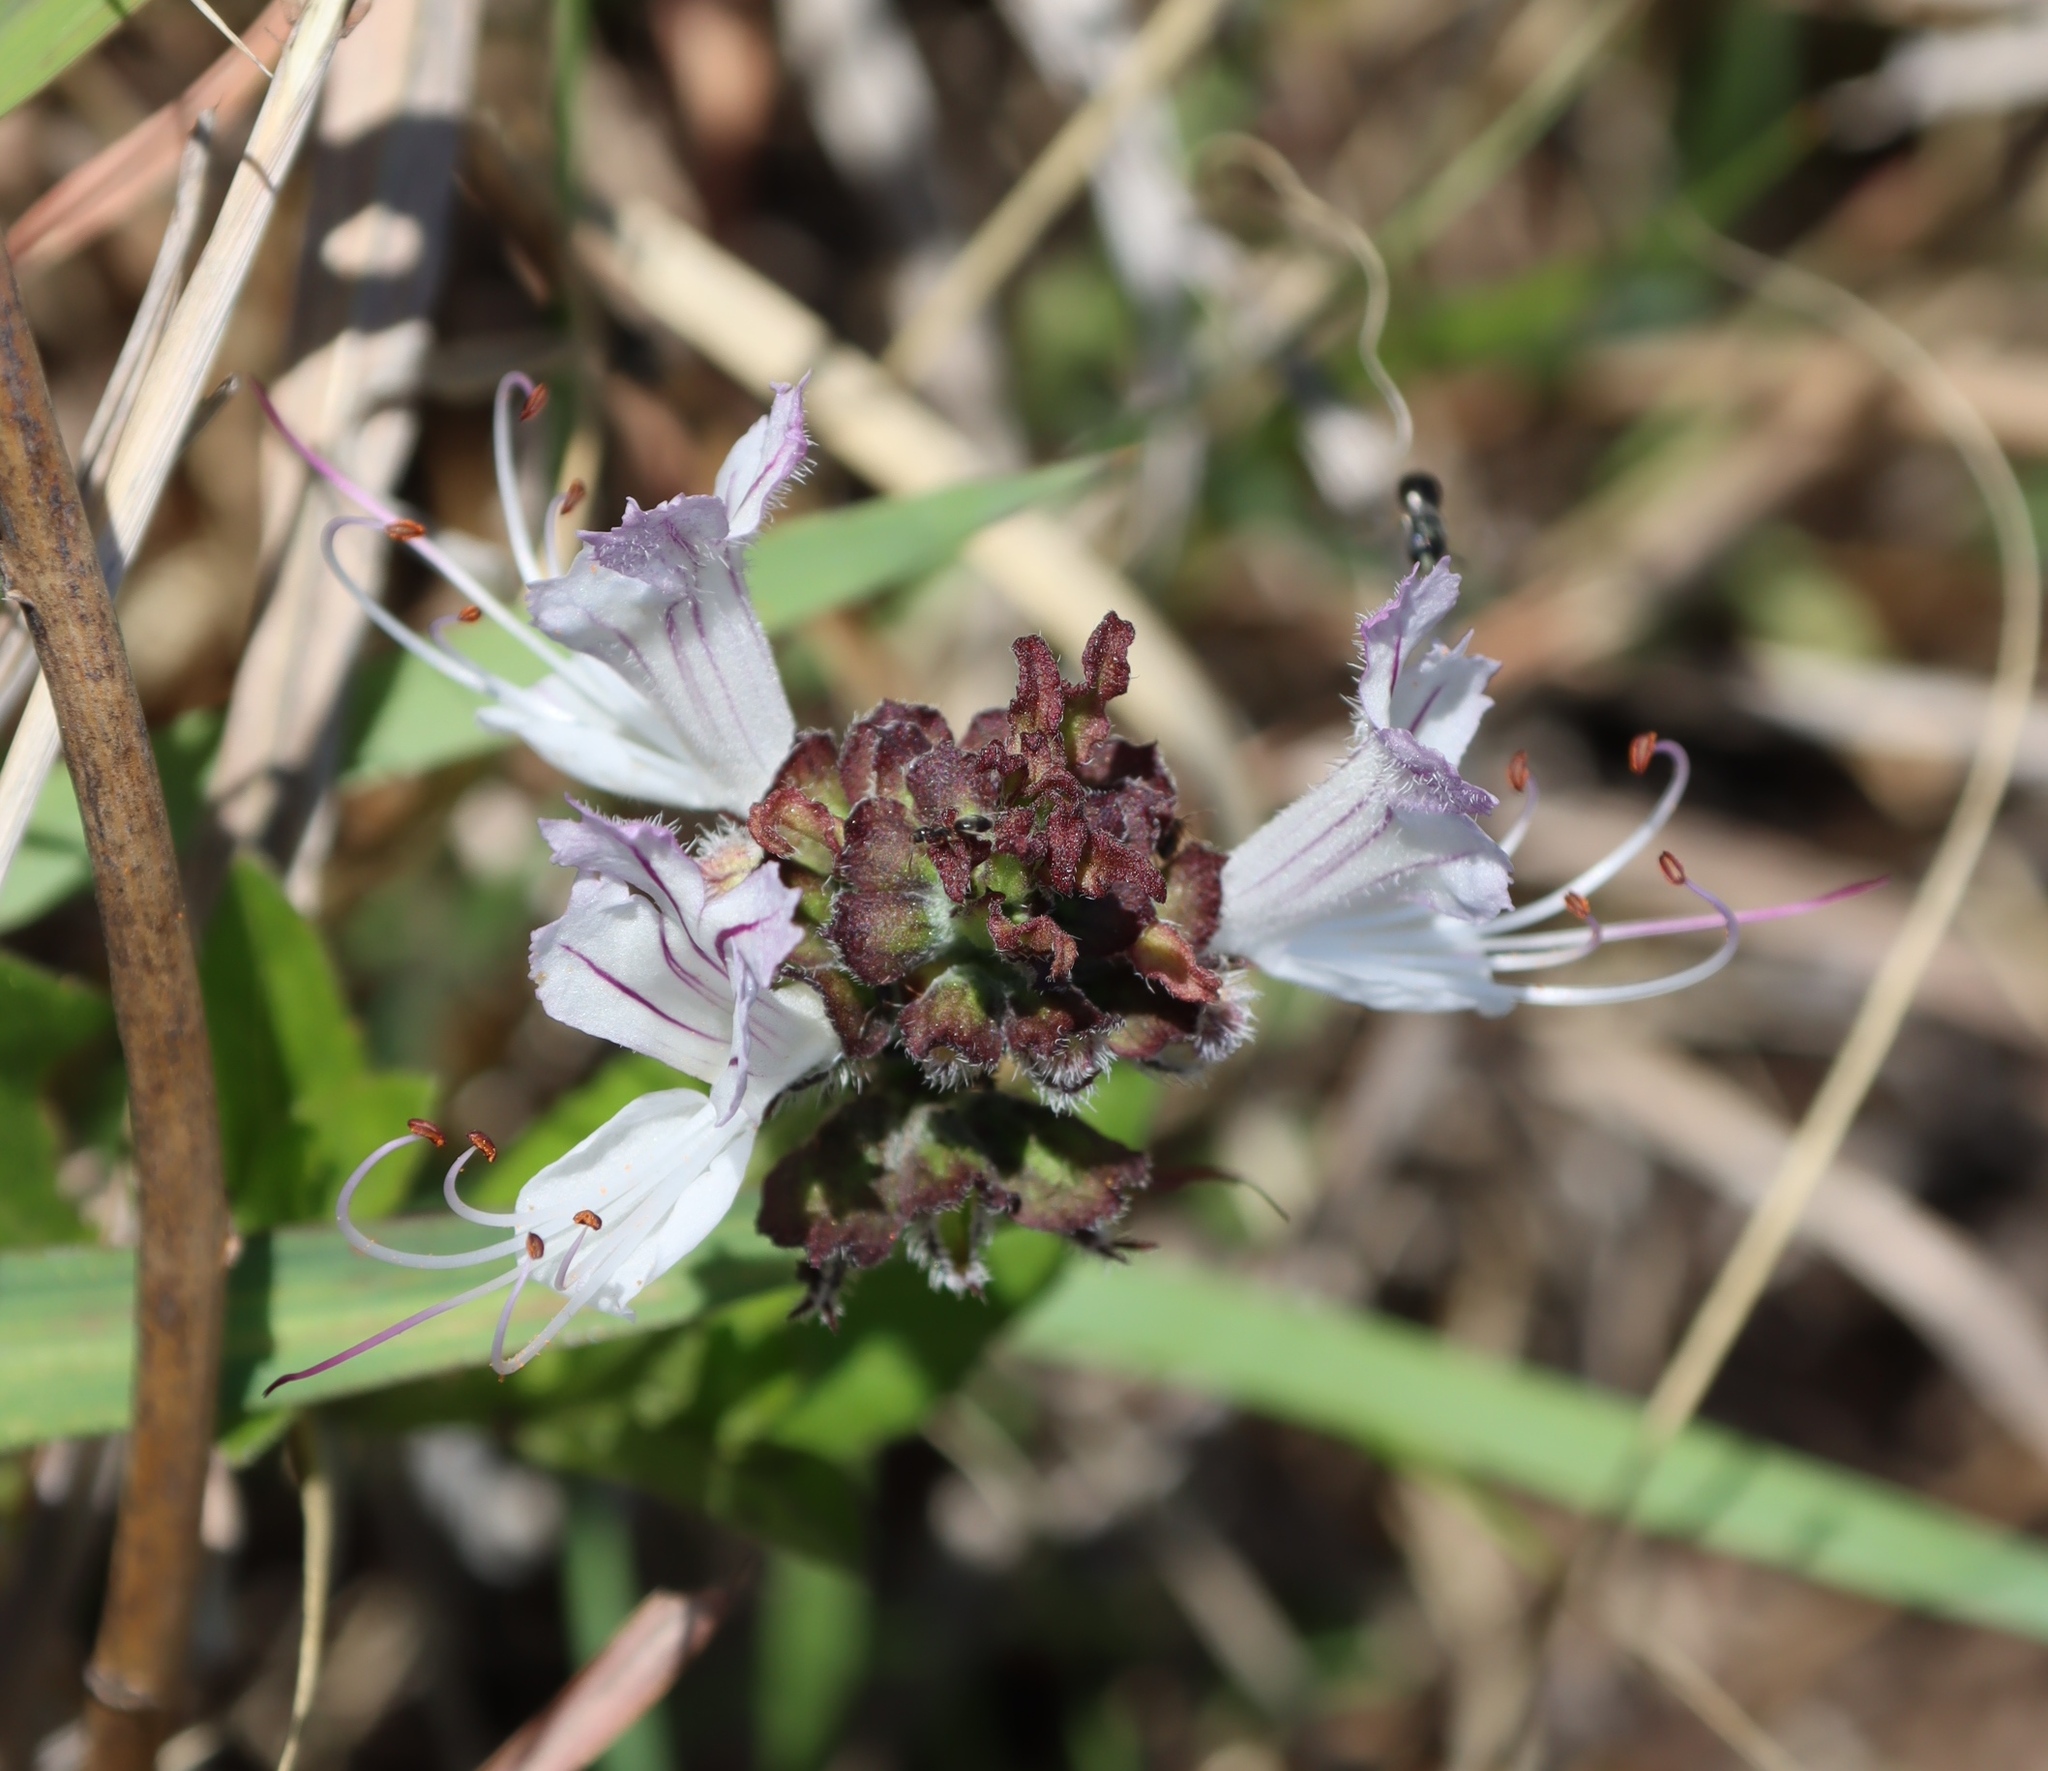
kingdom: Plantae
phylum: Tracheophyta
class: Magnoliopsida
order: Lamiales
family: Lamiaceae
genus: Ocimum
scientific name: Ocimum obovatum
